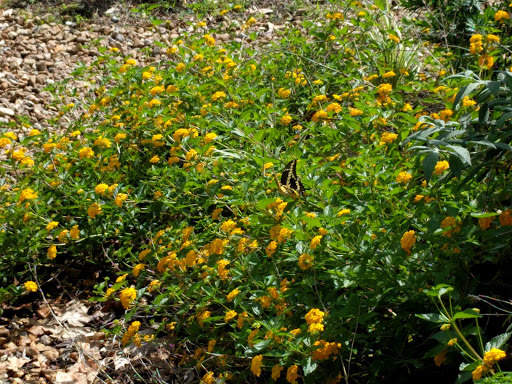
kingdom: Animalia
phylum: Arthropoda
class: Insecta
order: Lepidoptera
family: Papilionidae
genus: Papilio
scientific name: Papilio cresphontes
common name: Giant swallowtail
